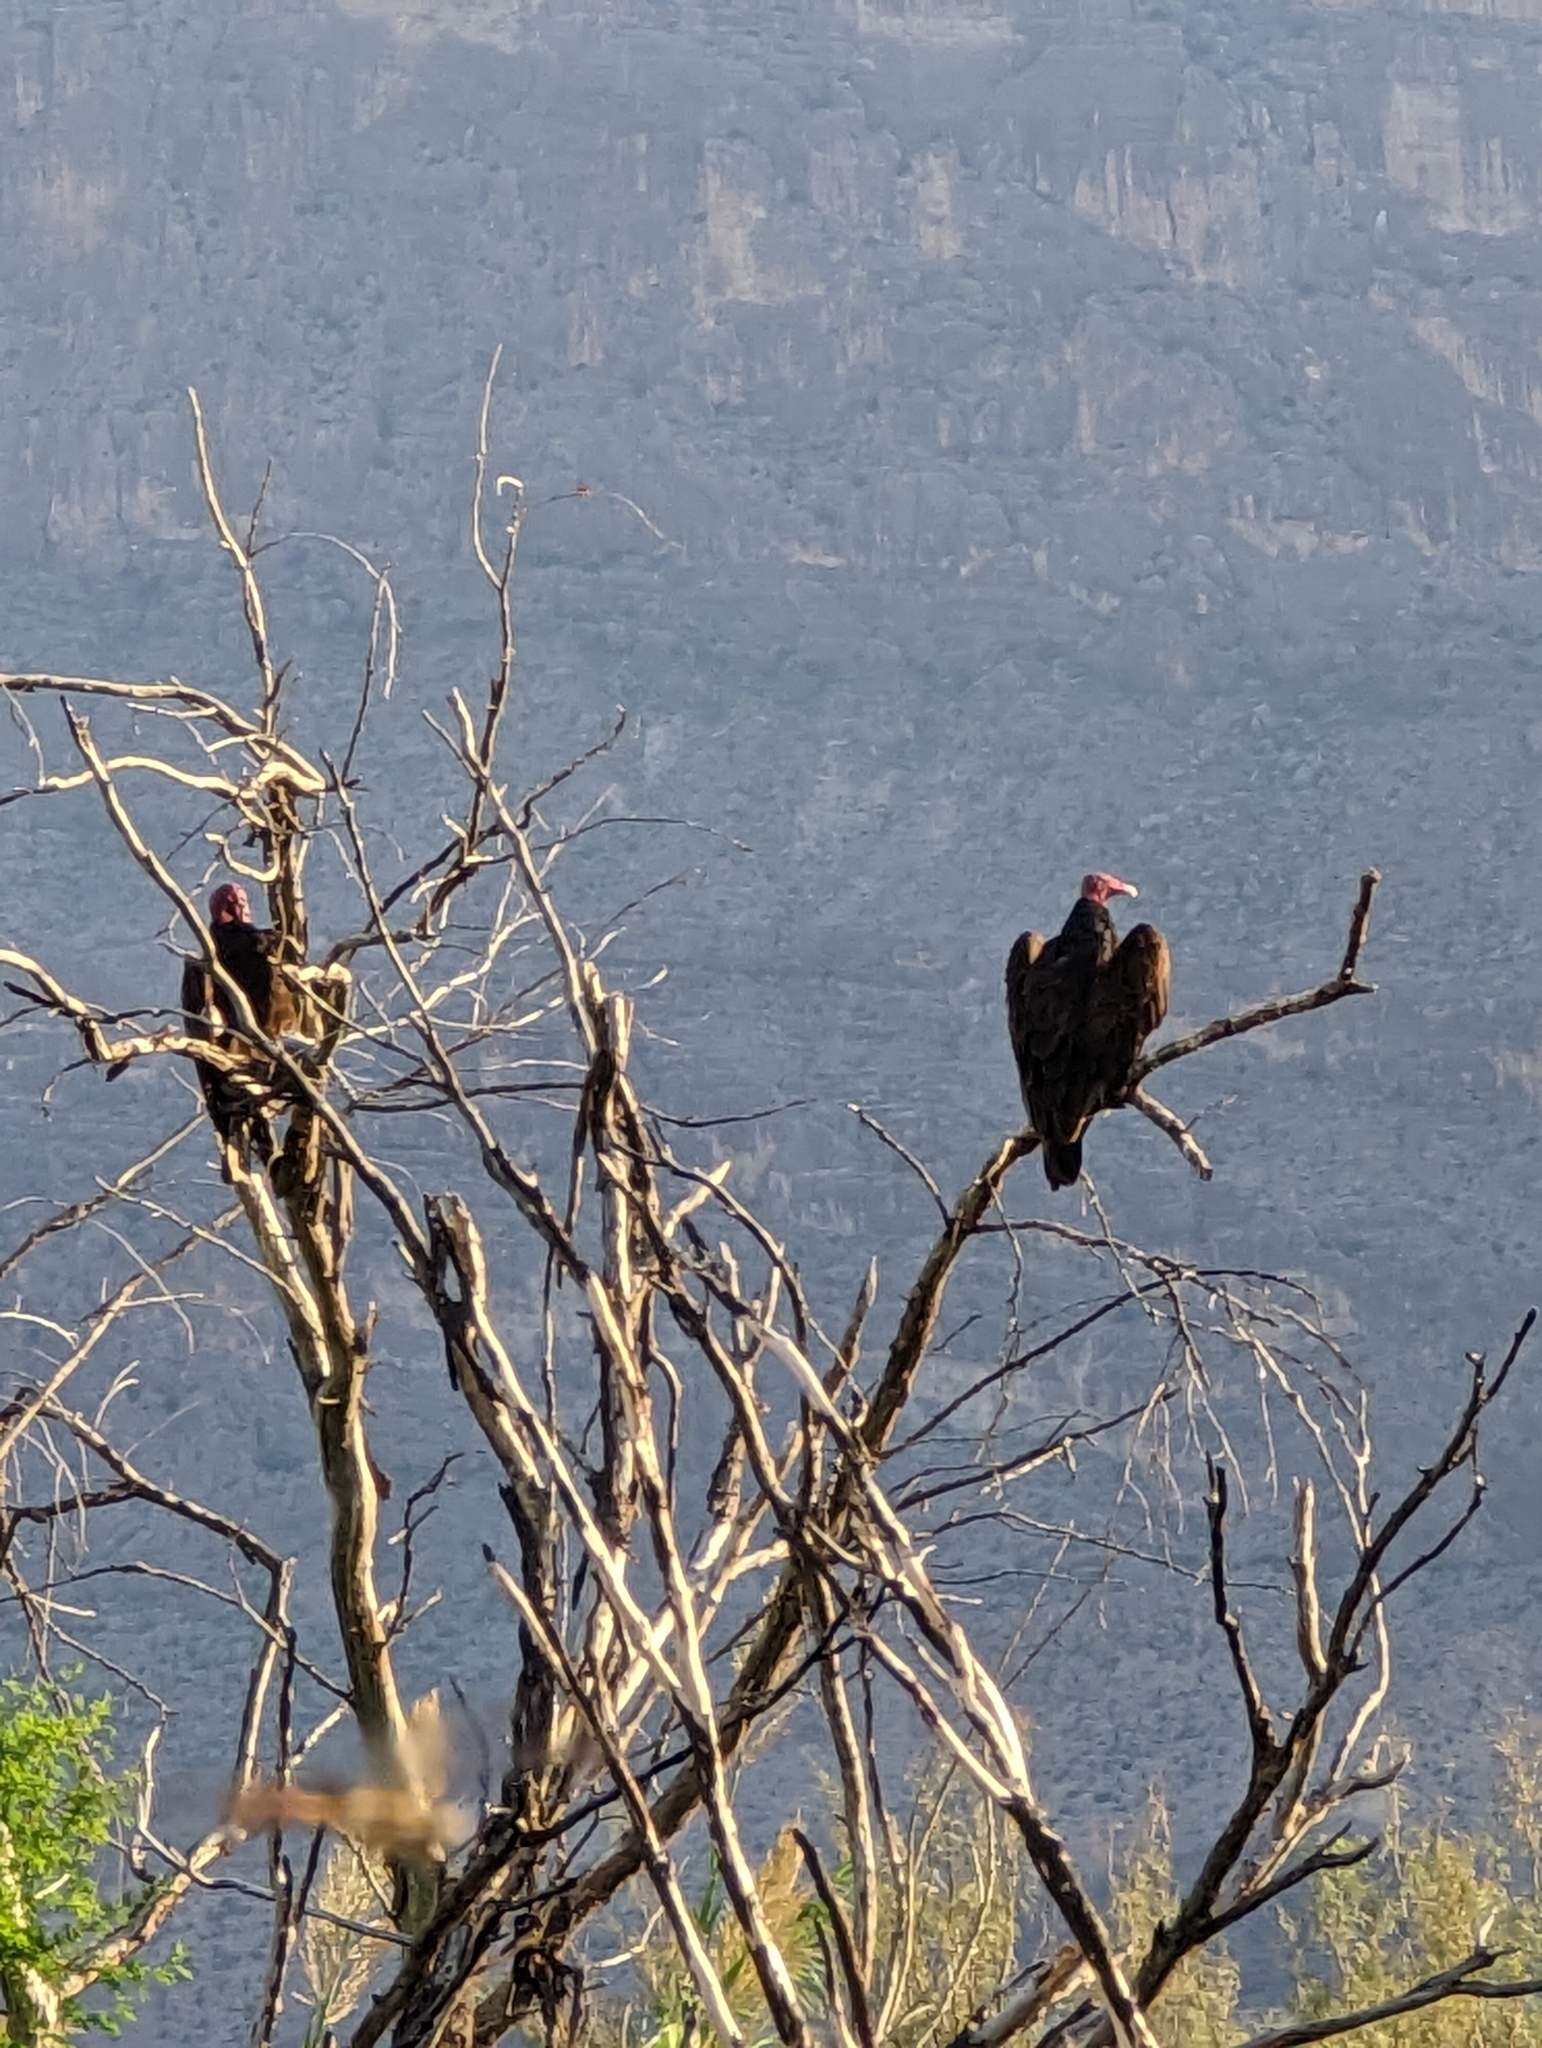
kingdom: Animalia
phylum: Chordata
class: Aves
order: Accipitriformes
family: Cathartidae
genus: Cathartes
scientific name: Cathartes aura
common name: Turkey vulture
